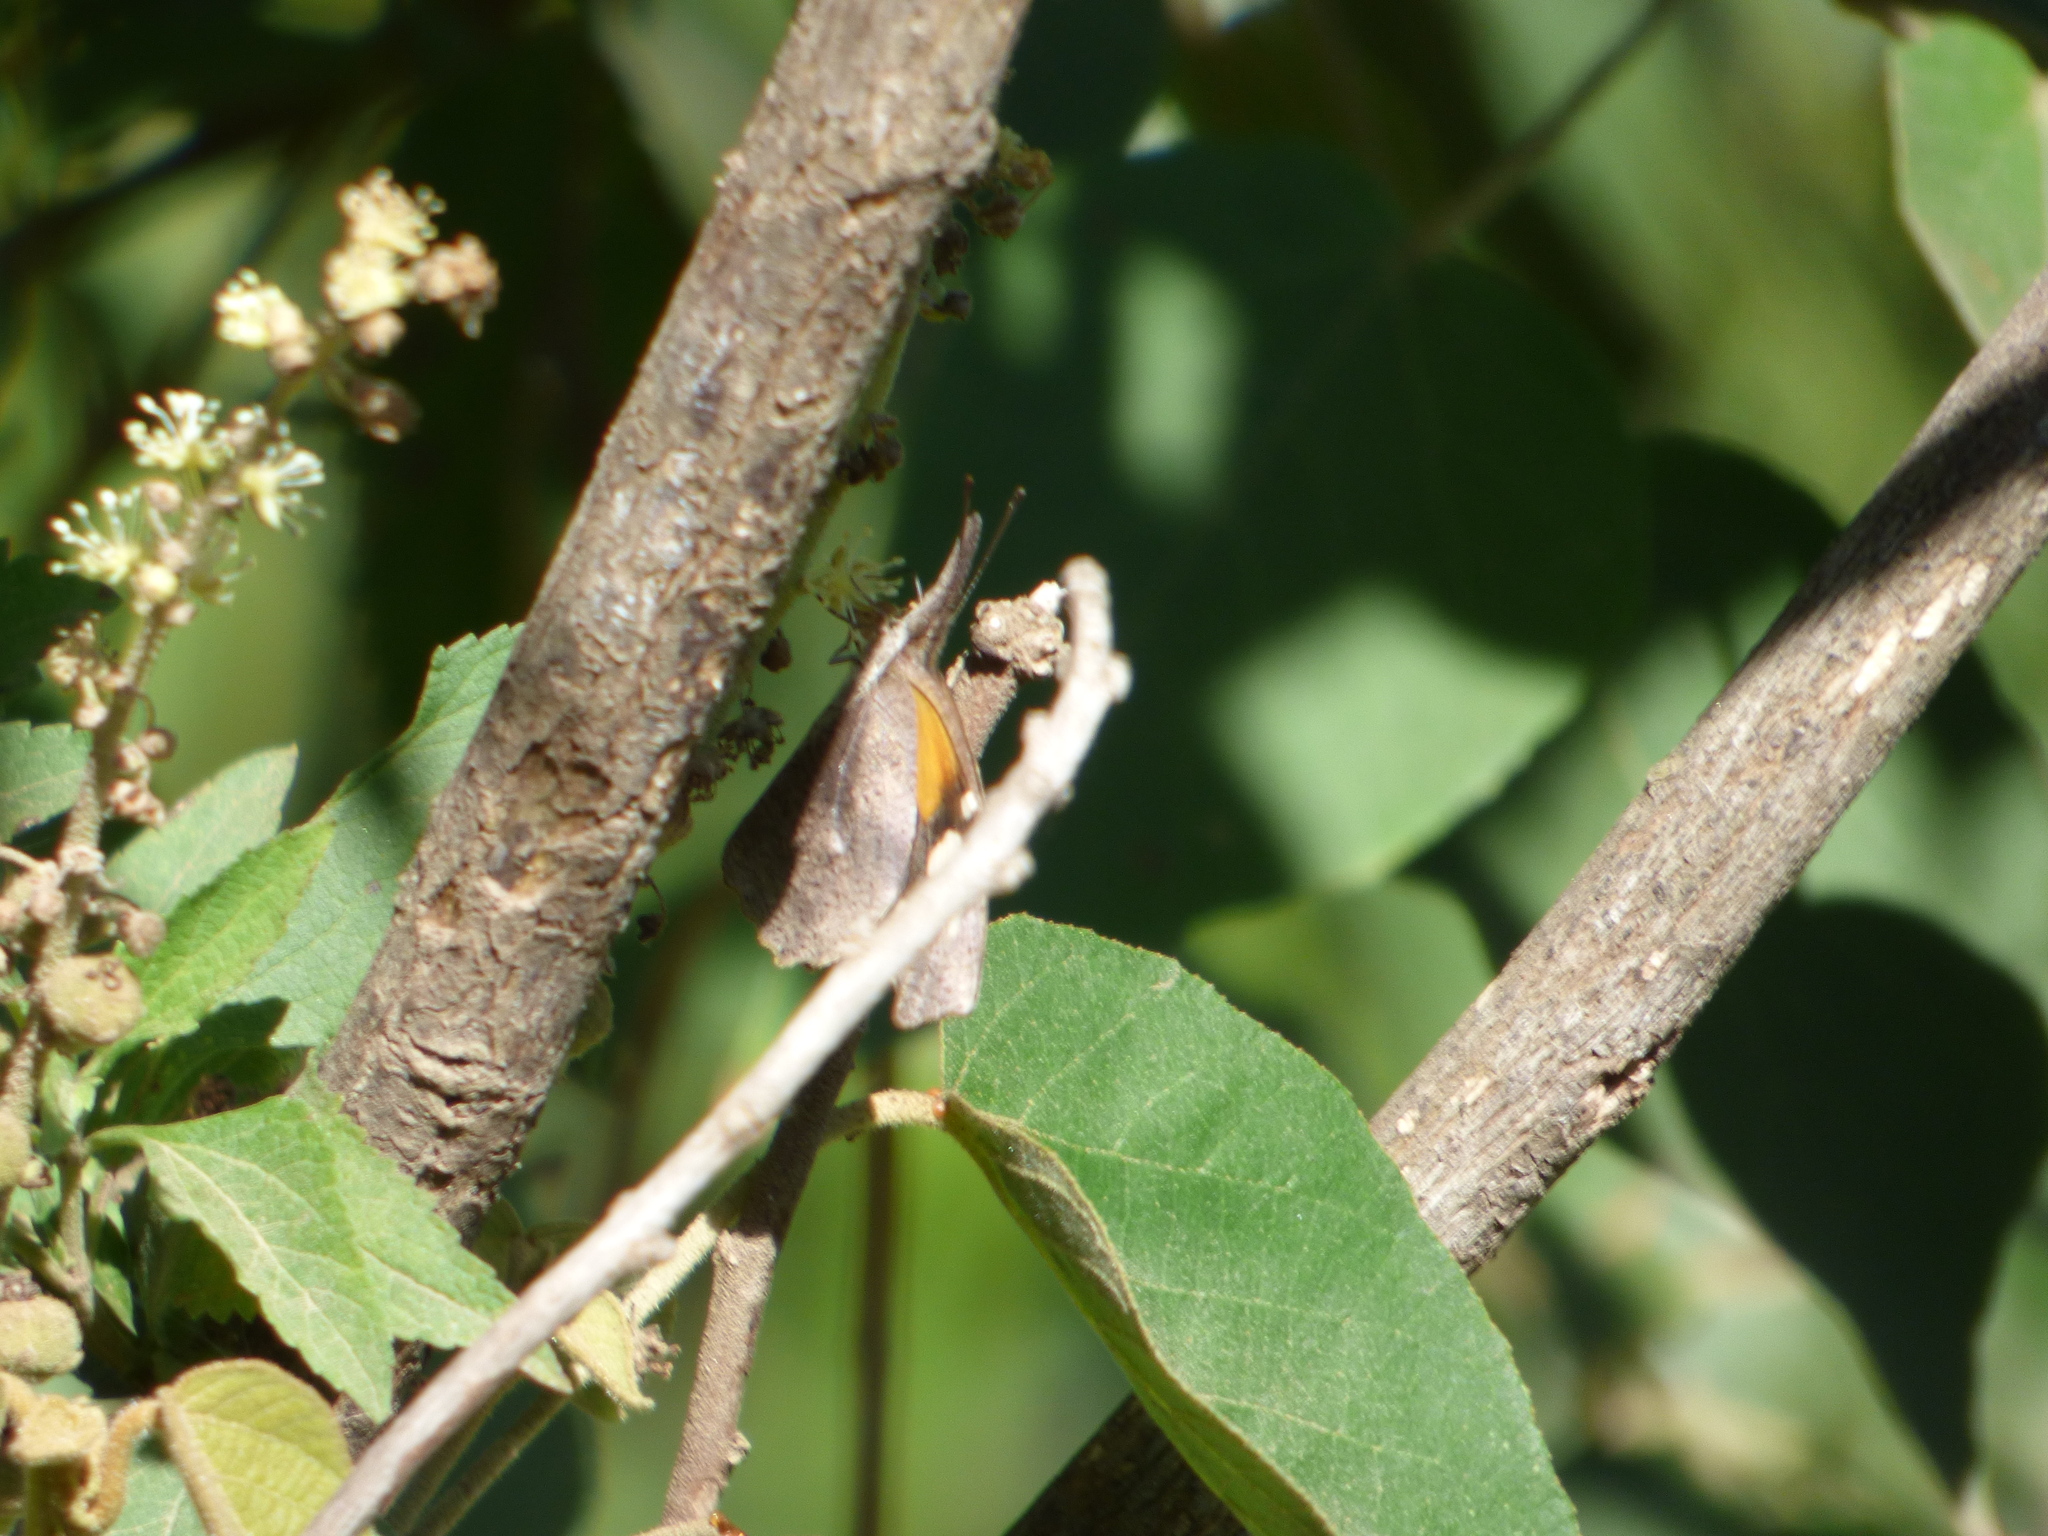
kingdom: Animalia
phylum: Arthropoda
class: Insecta
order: Lepidoptera
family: Nymphalidae
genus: Libytheana
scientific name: Libytheana carinenta
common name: American snout
